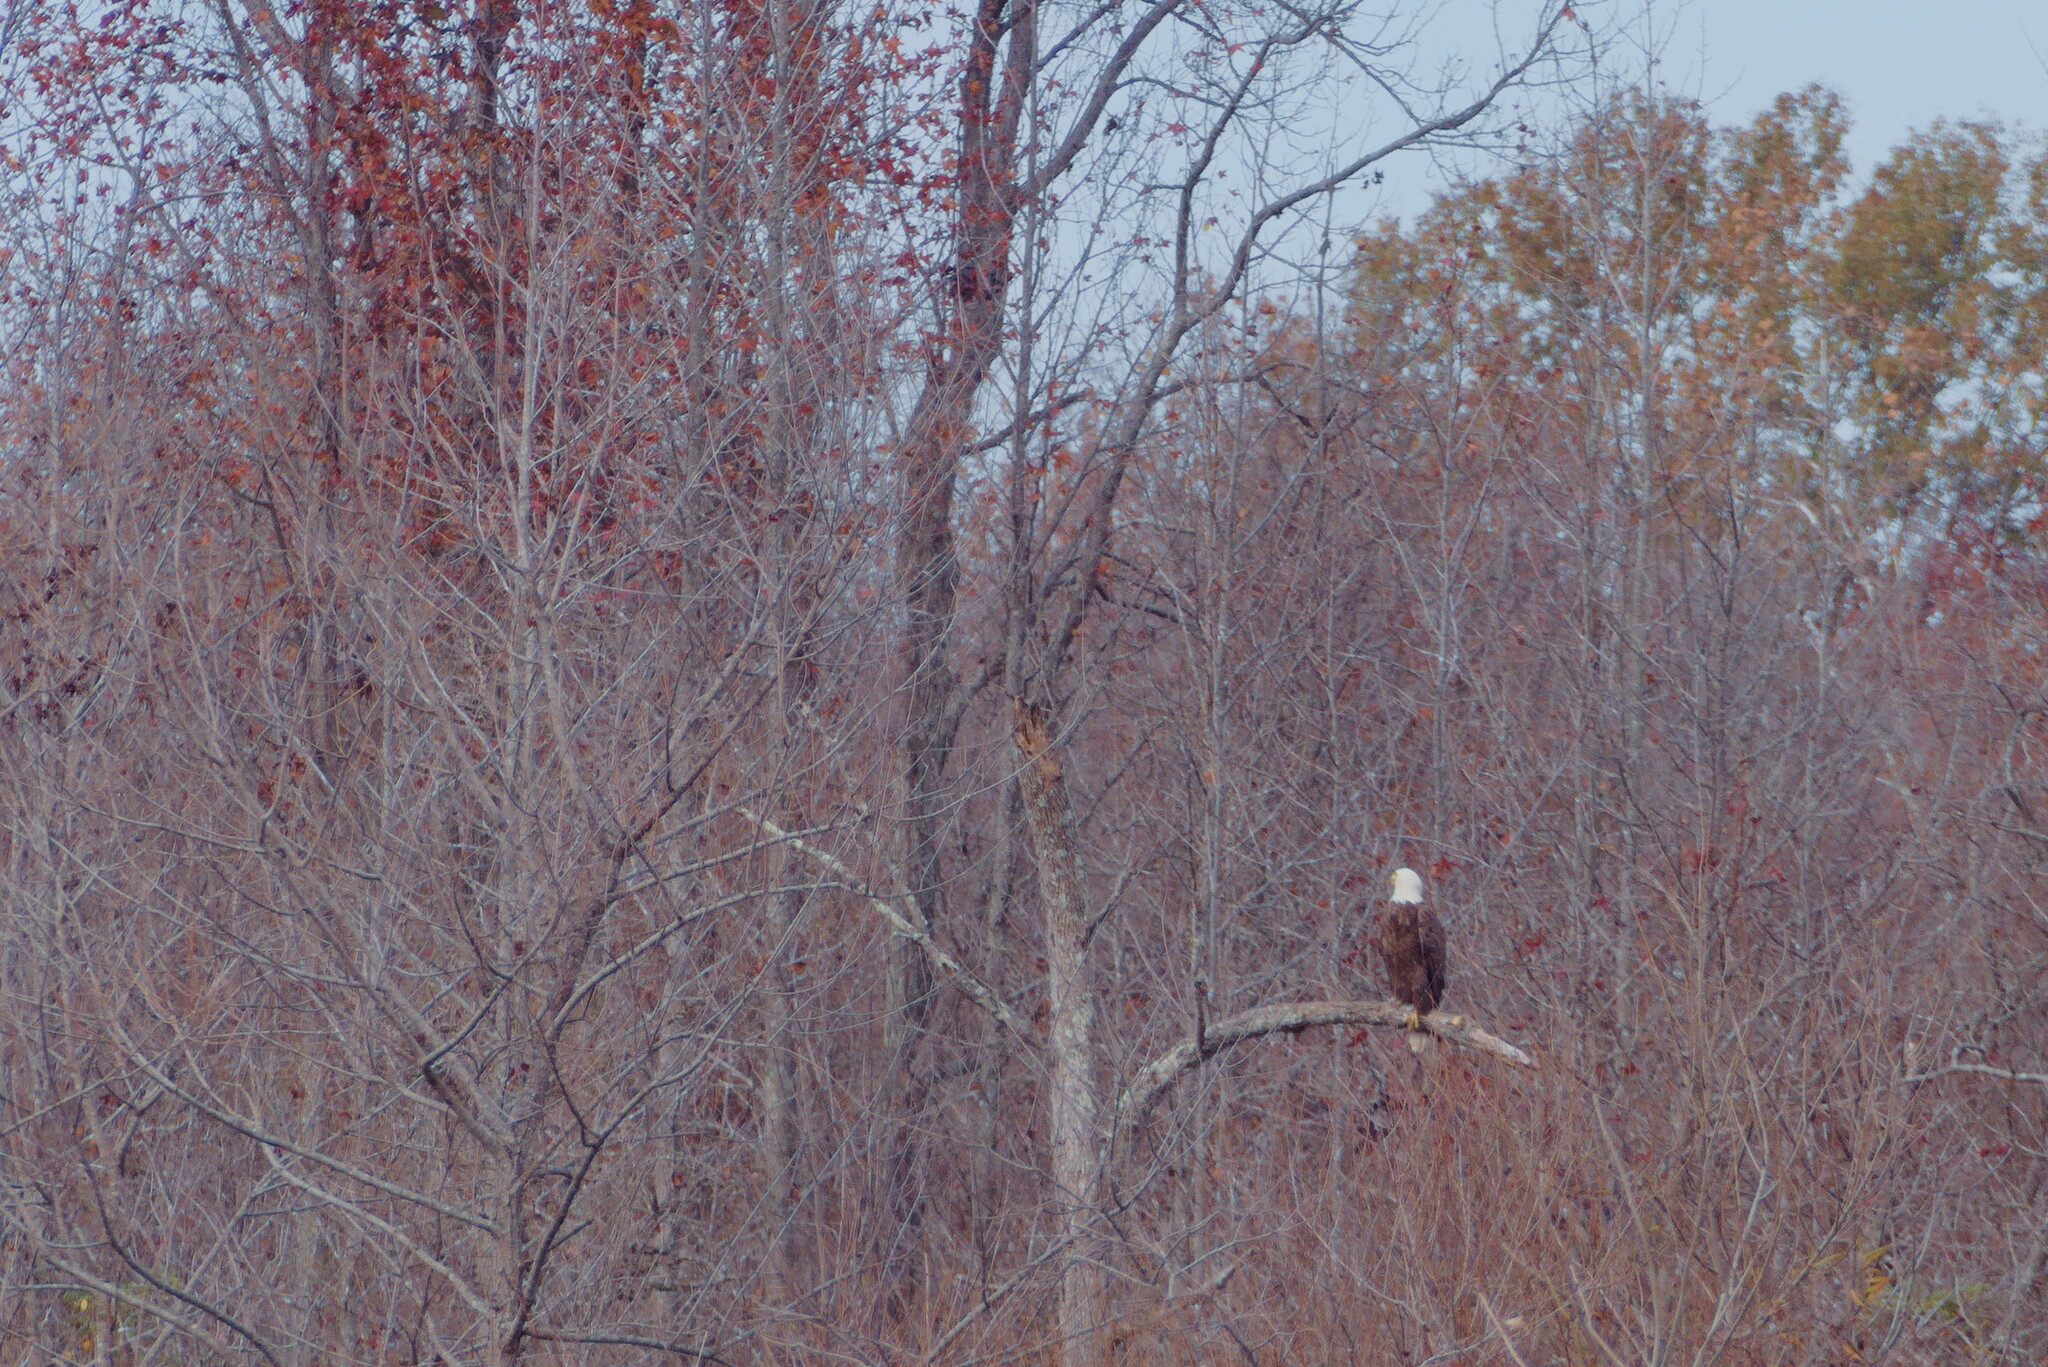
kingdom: Animalia
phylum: Chordata
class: Aves
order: Accipitriformes
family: Accipitridae
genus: Haliaeetus
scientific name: Haliaeetus leucocephalus
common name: Bald eagle
